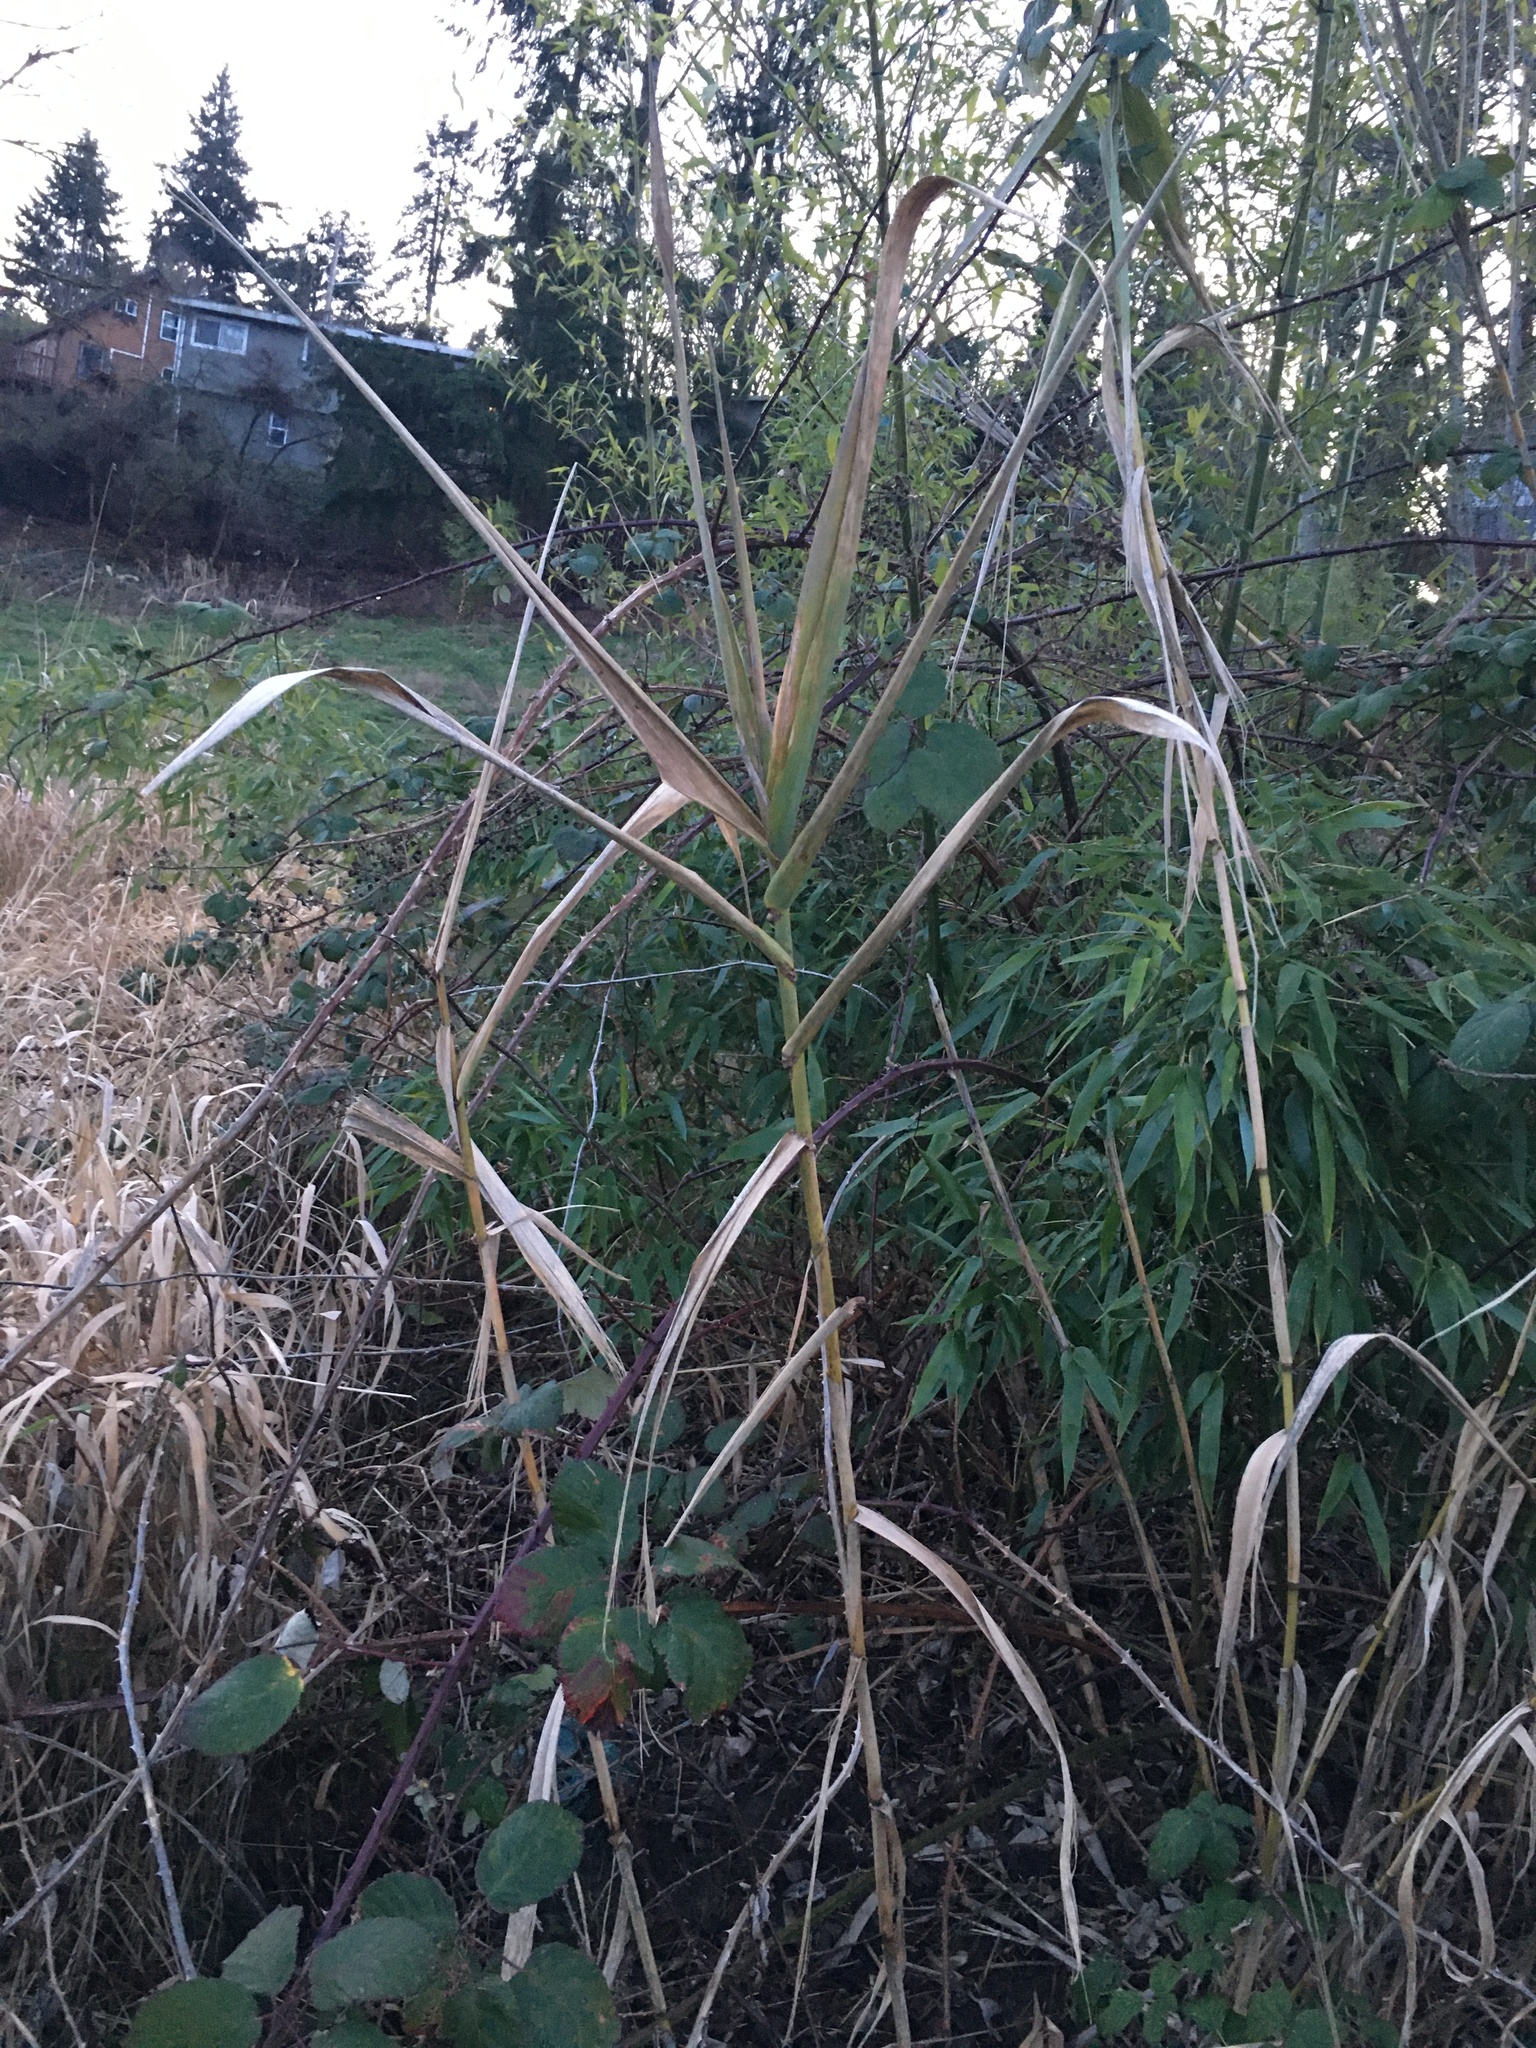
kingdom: Plantae
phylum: Tracheophyta
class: Liliopsida
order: Poales
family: Poaceae
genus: Arundo
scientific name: Arundo donax
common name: Giant reed
